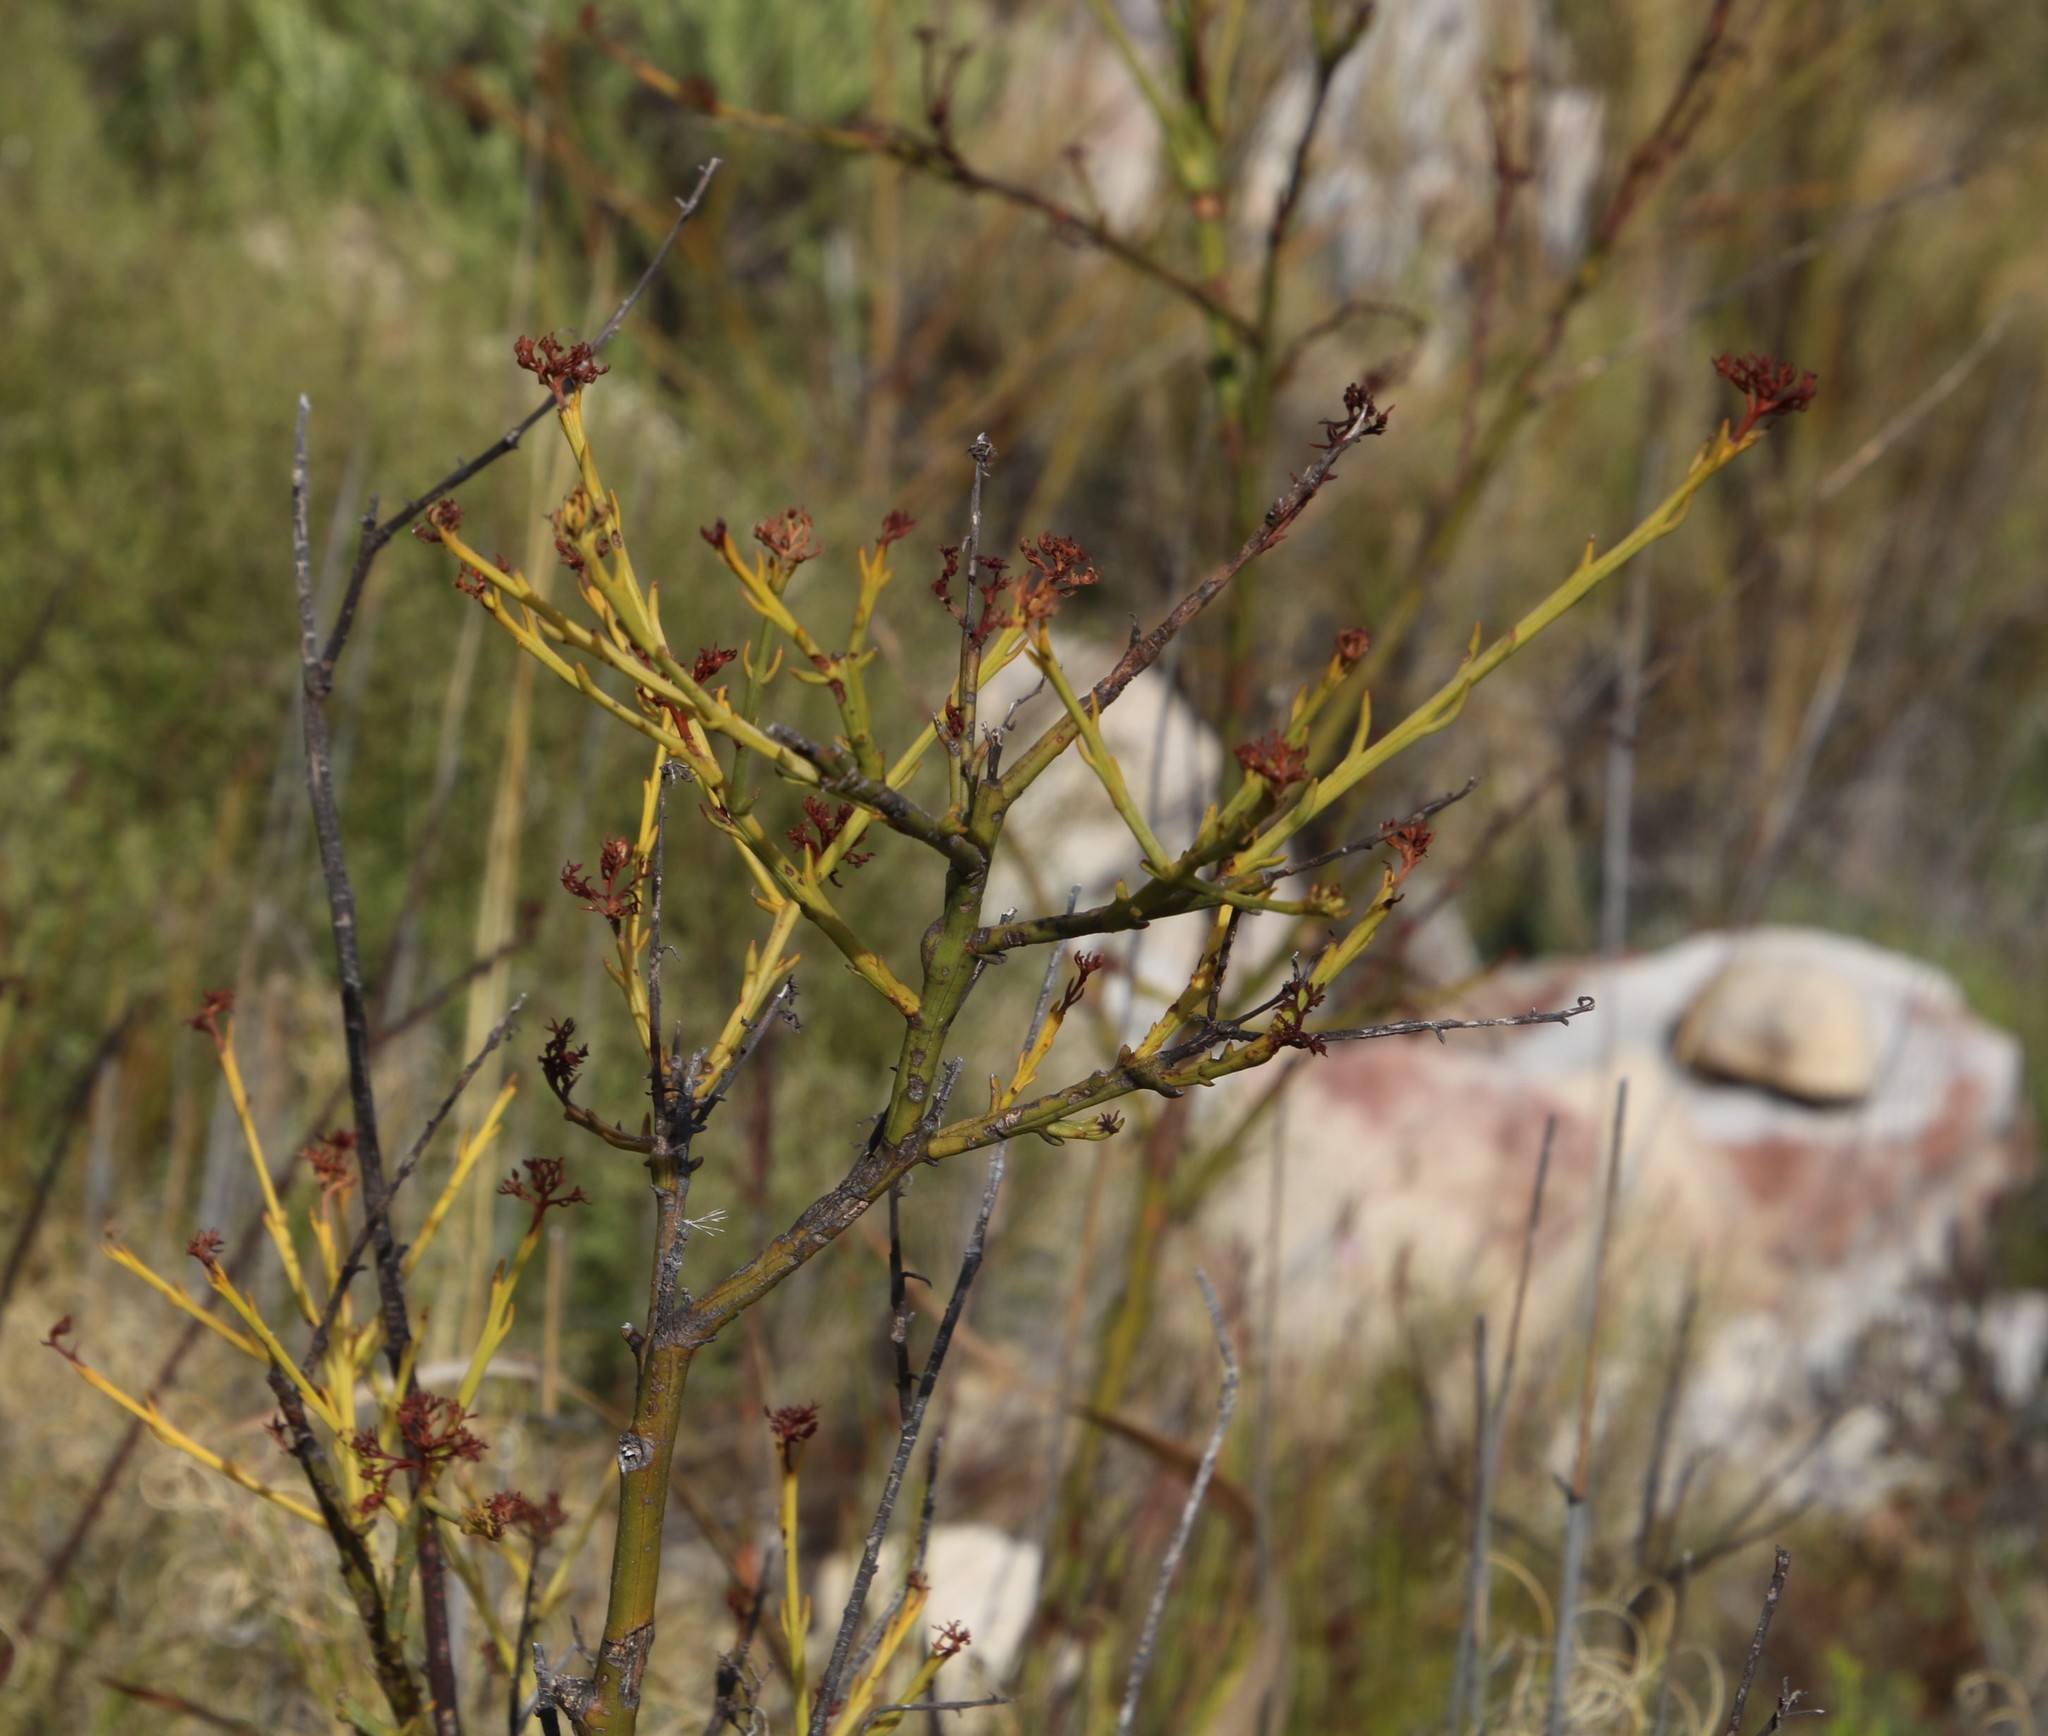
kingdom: Plantae
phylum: Tracheophyta
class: Magnoliopsida
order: Santalales
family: Thesiaceae
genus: Thesium
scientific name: Thesium strictum
